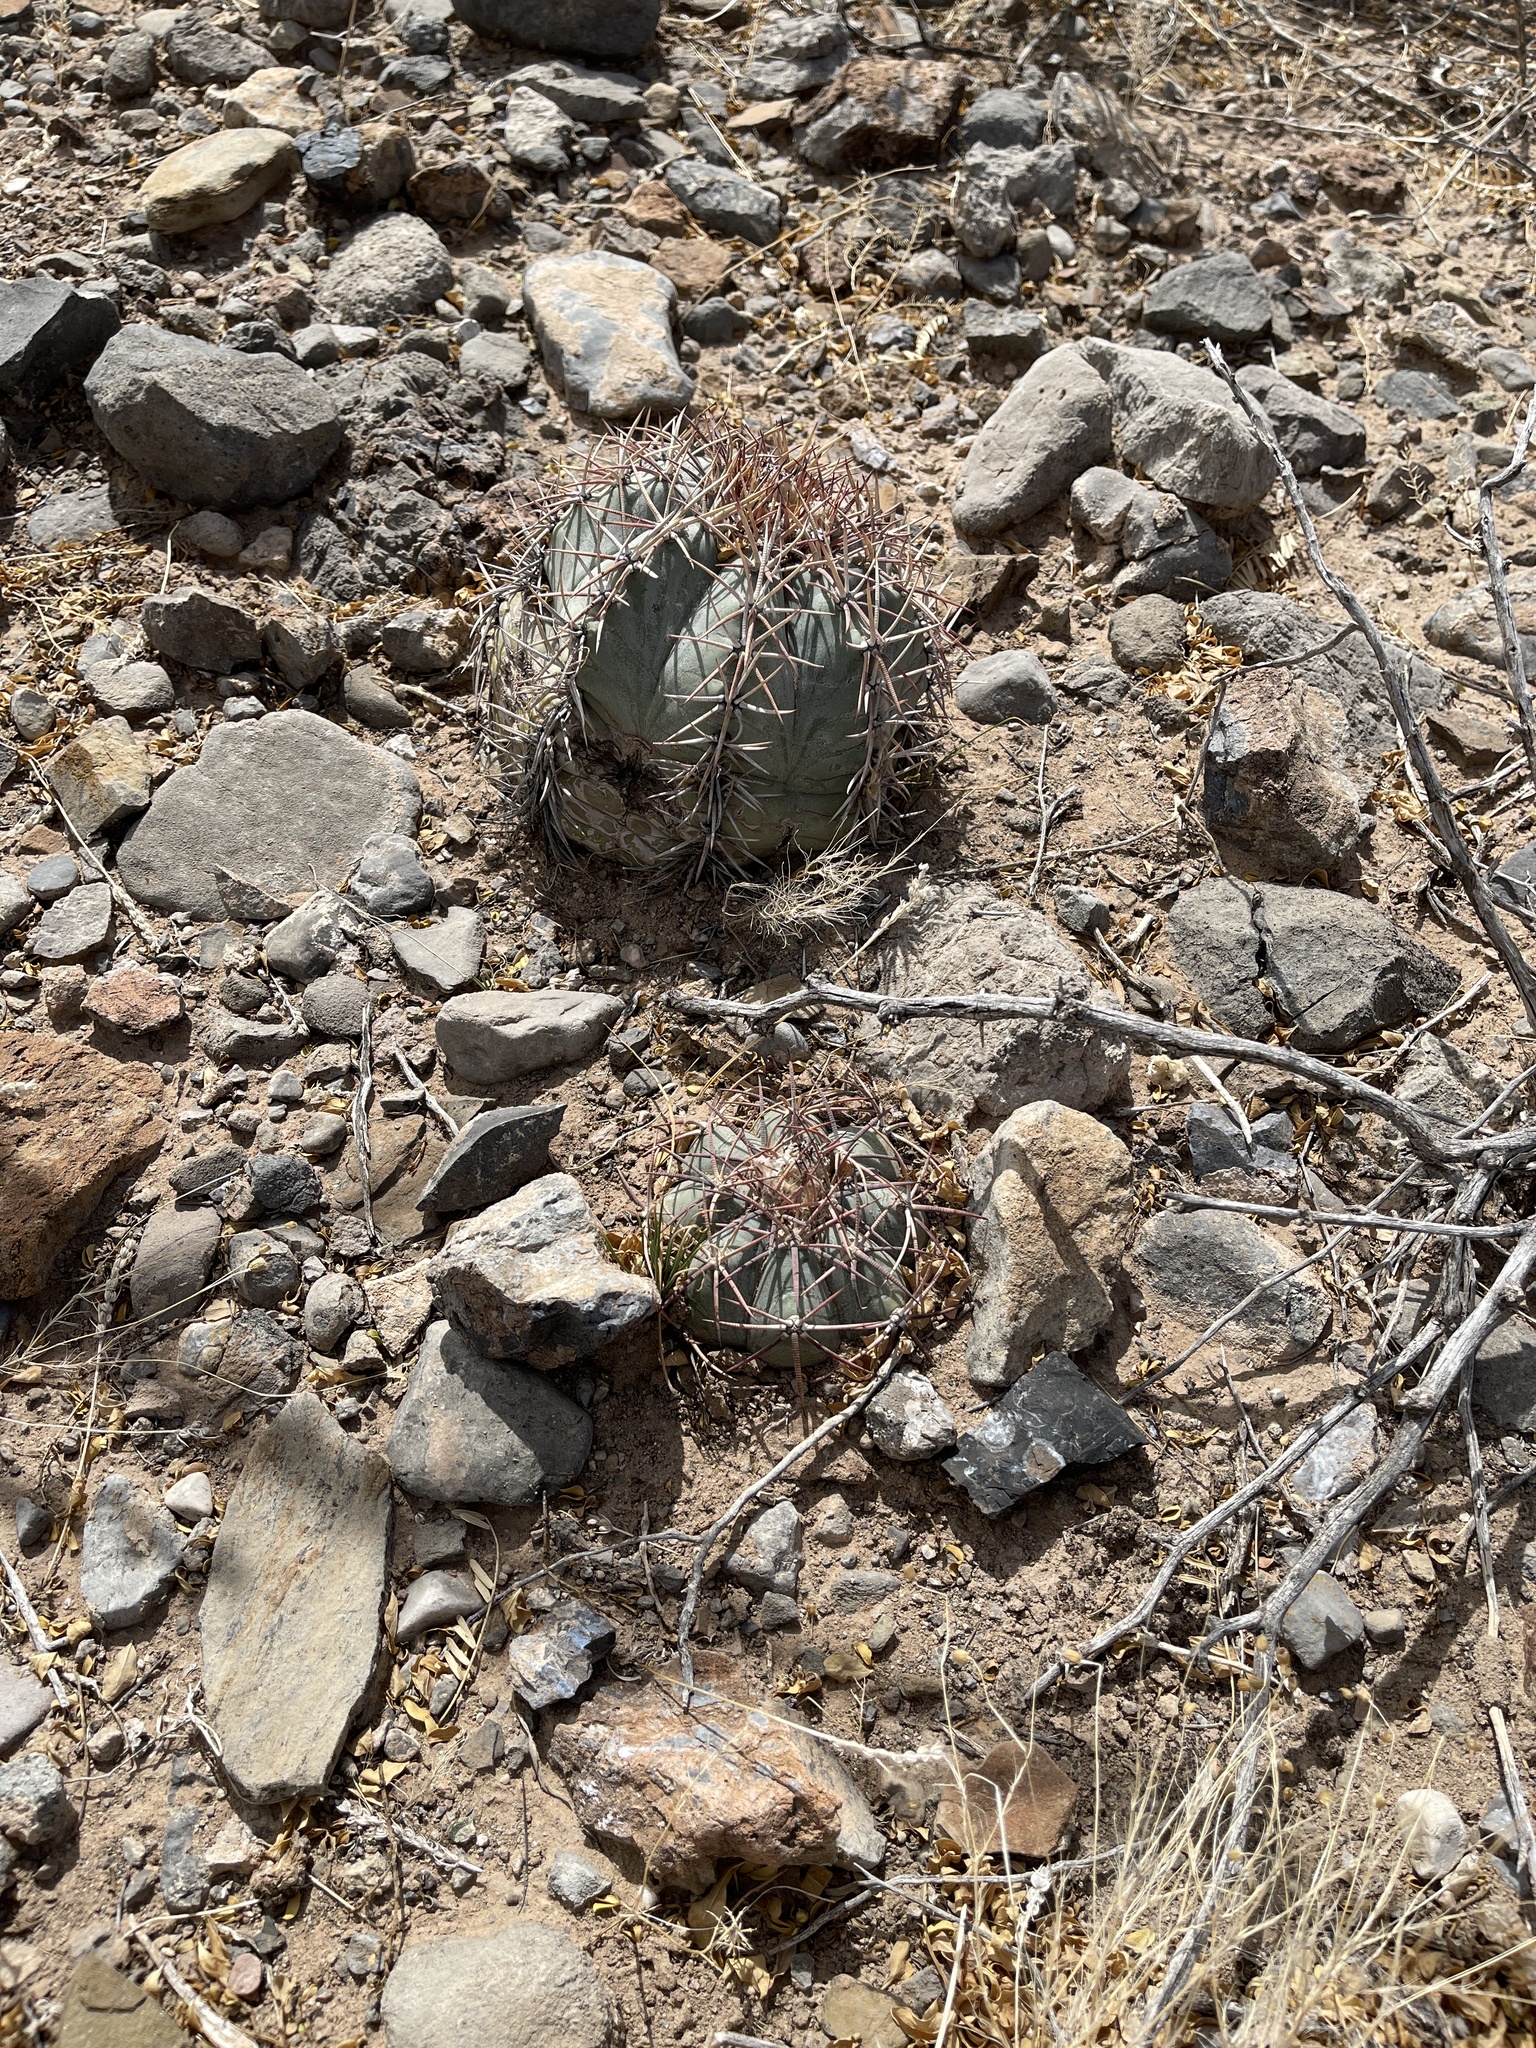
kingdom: Plantae
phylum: Tracheophyta
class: Magnoliopsida
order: Caryophyllales
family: Cactaceae
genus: Echinocactus
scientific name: Echinocactus horizonthalonius
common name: Devilshead
